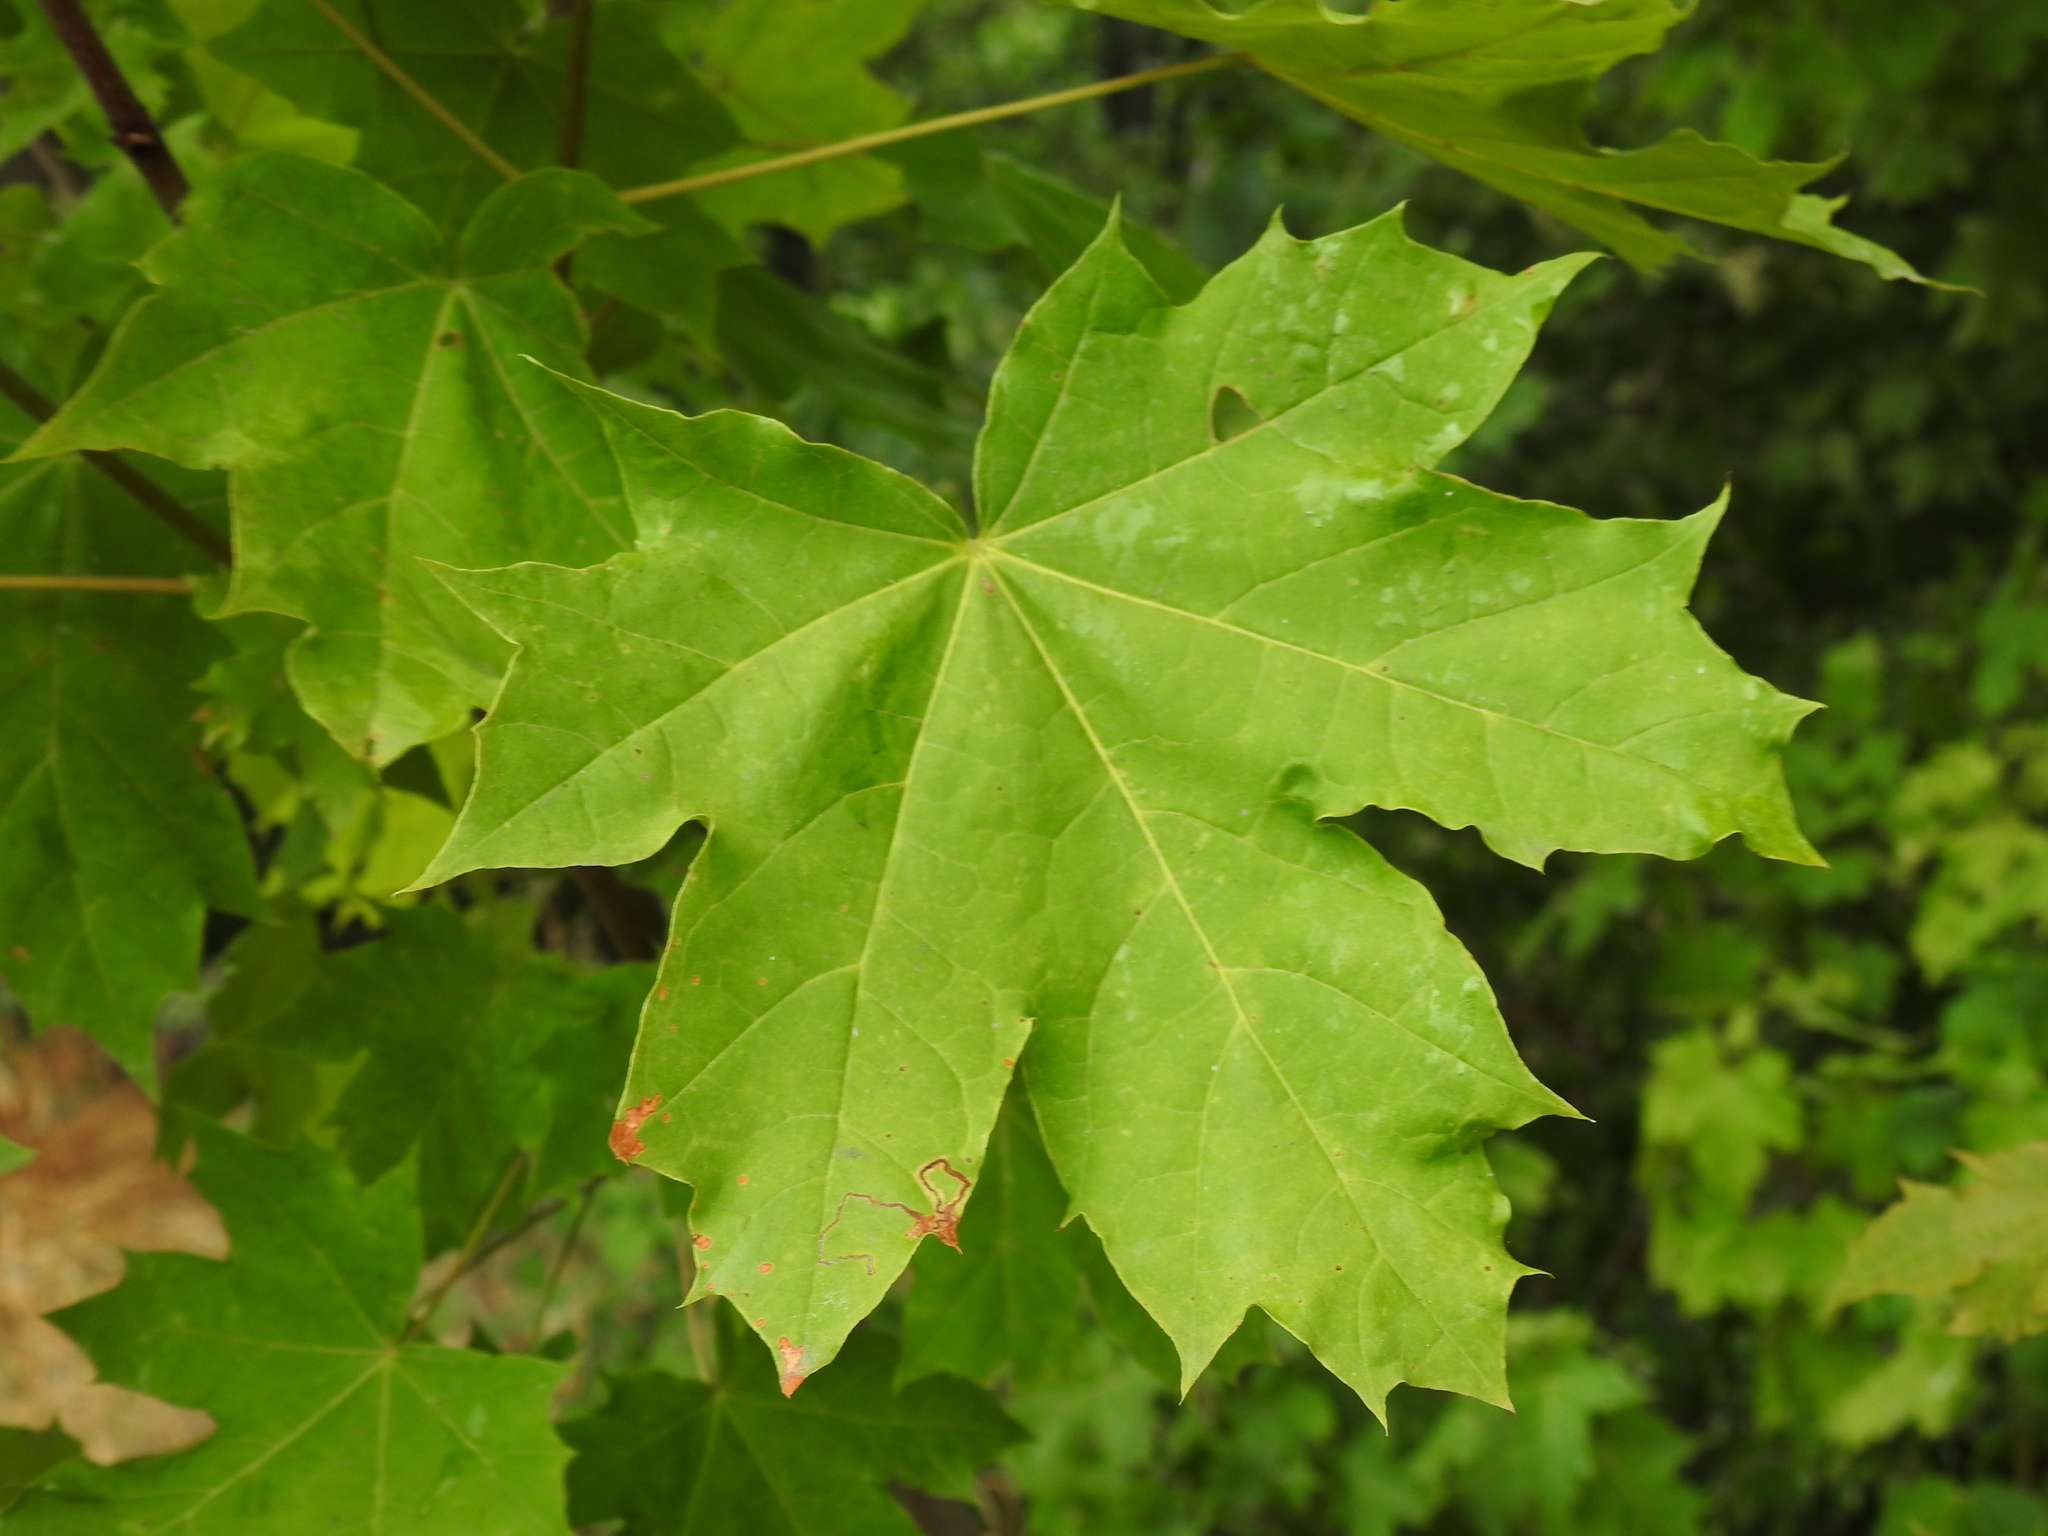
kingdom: Plantae
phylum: Tracheophyta
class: Magnoliopsida
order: Sapindales
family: Sapindaceae
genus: Acer
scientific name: Acer platanoides
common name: Norway maple
